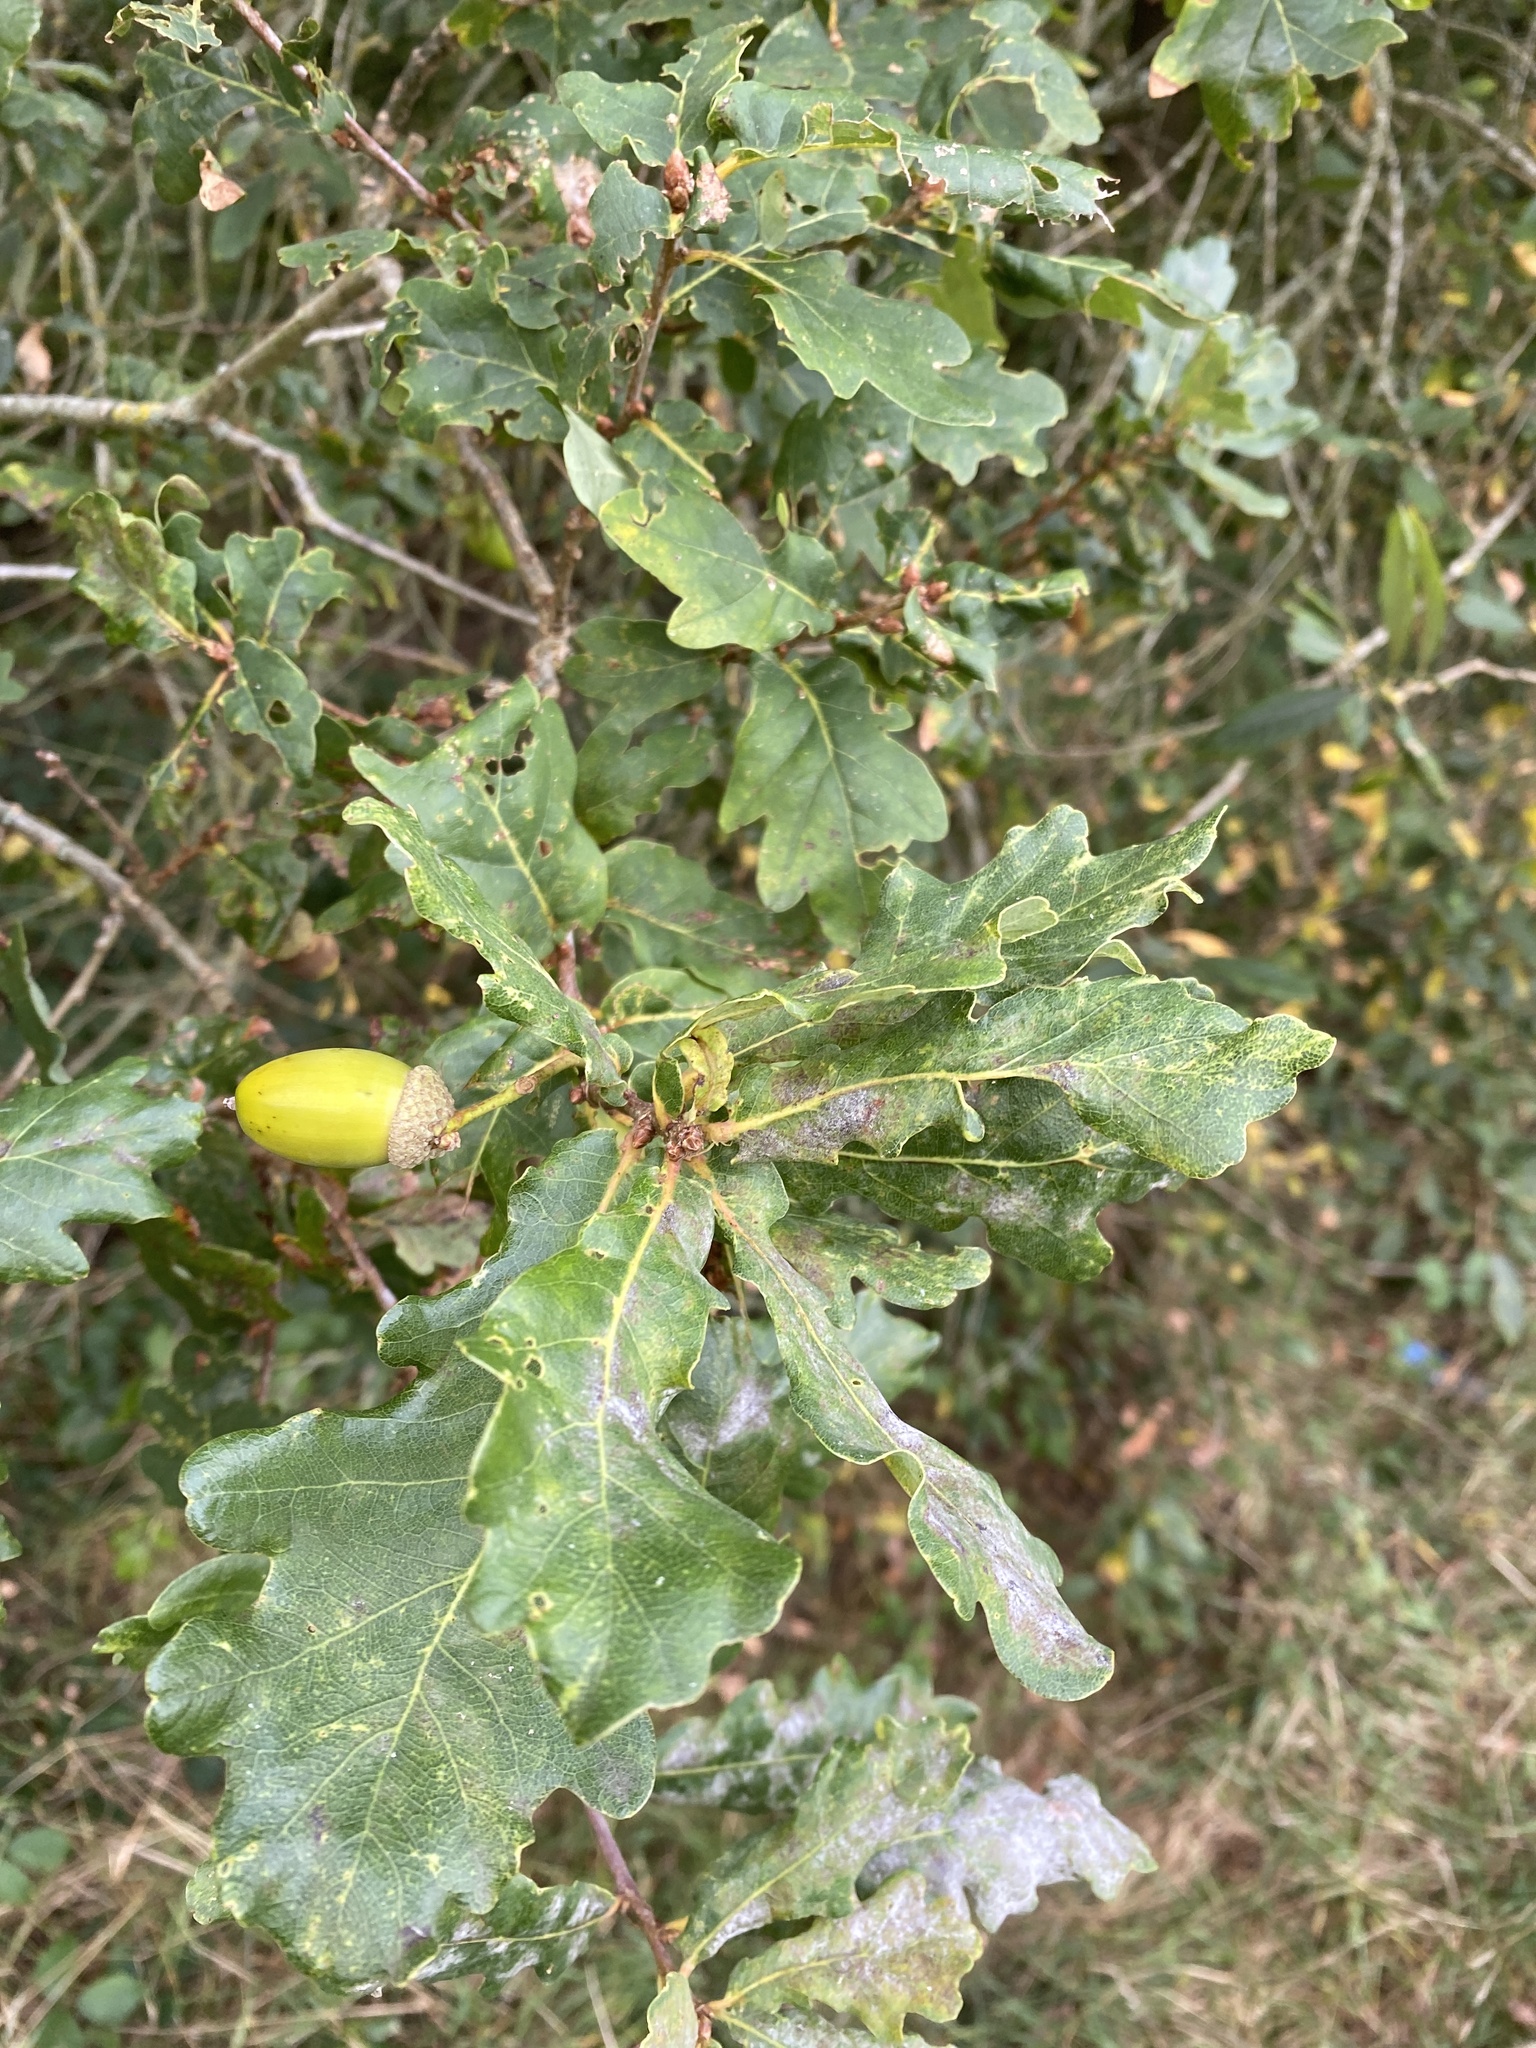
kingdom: Plantae
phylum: Tracheophyta
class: Magnoliopsida
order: Fagales
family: Fagaceae
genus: Quercus
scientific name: Quercus robur
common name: Pedunculate oak
